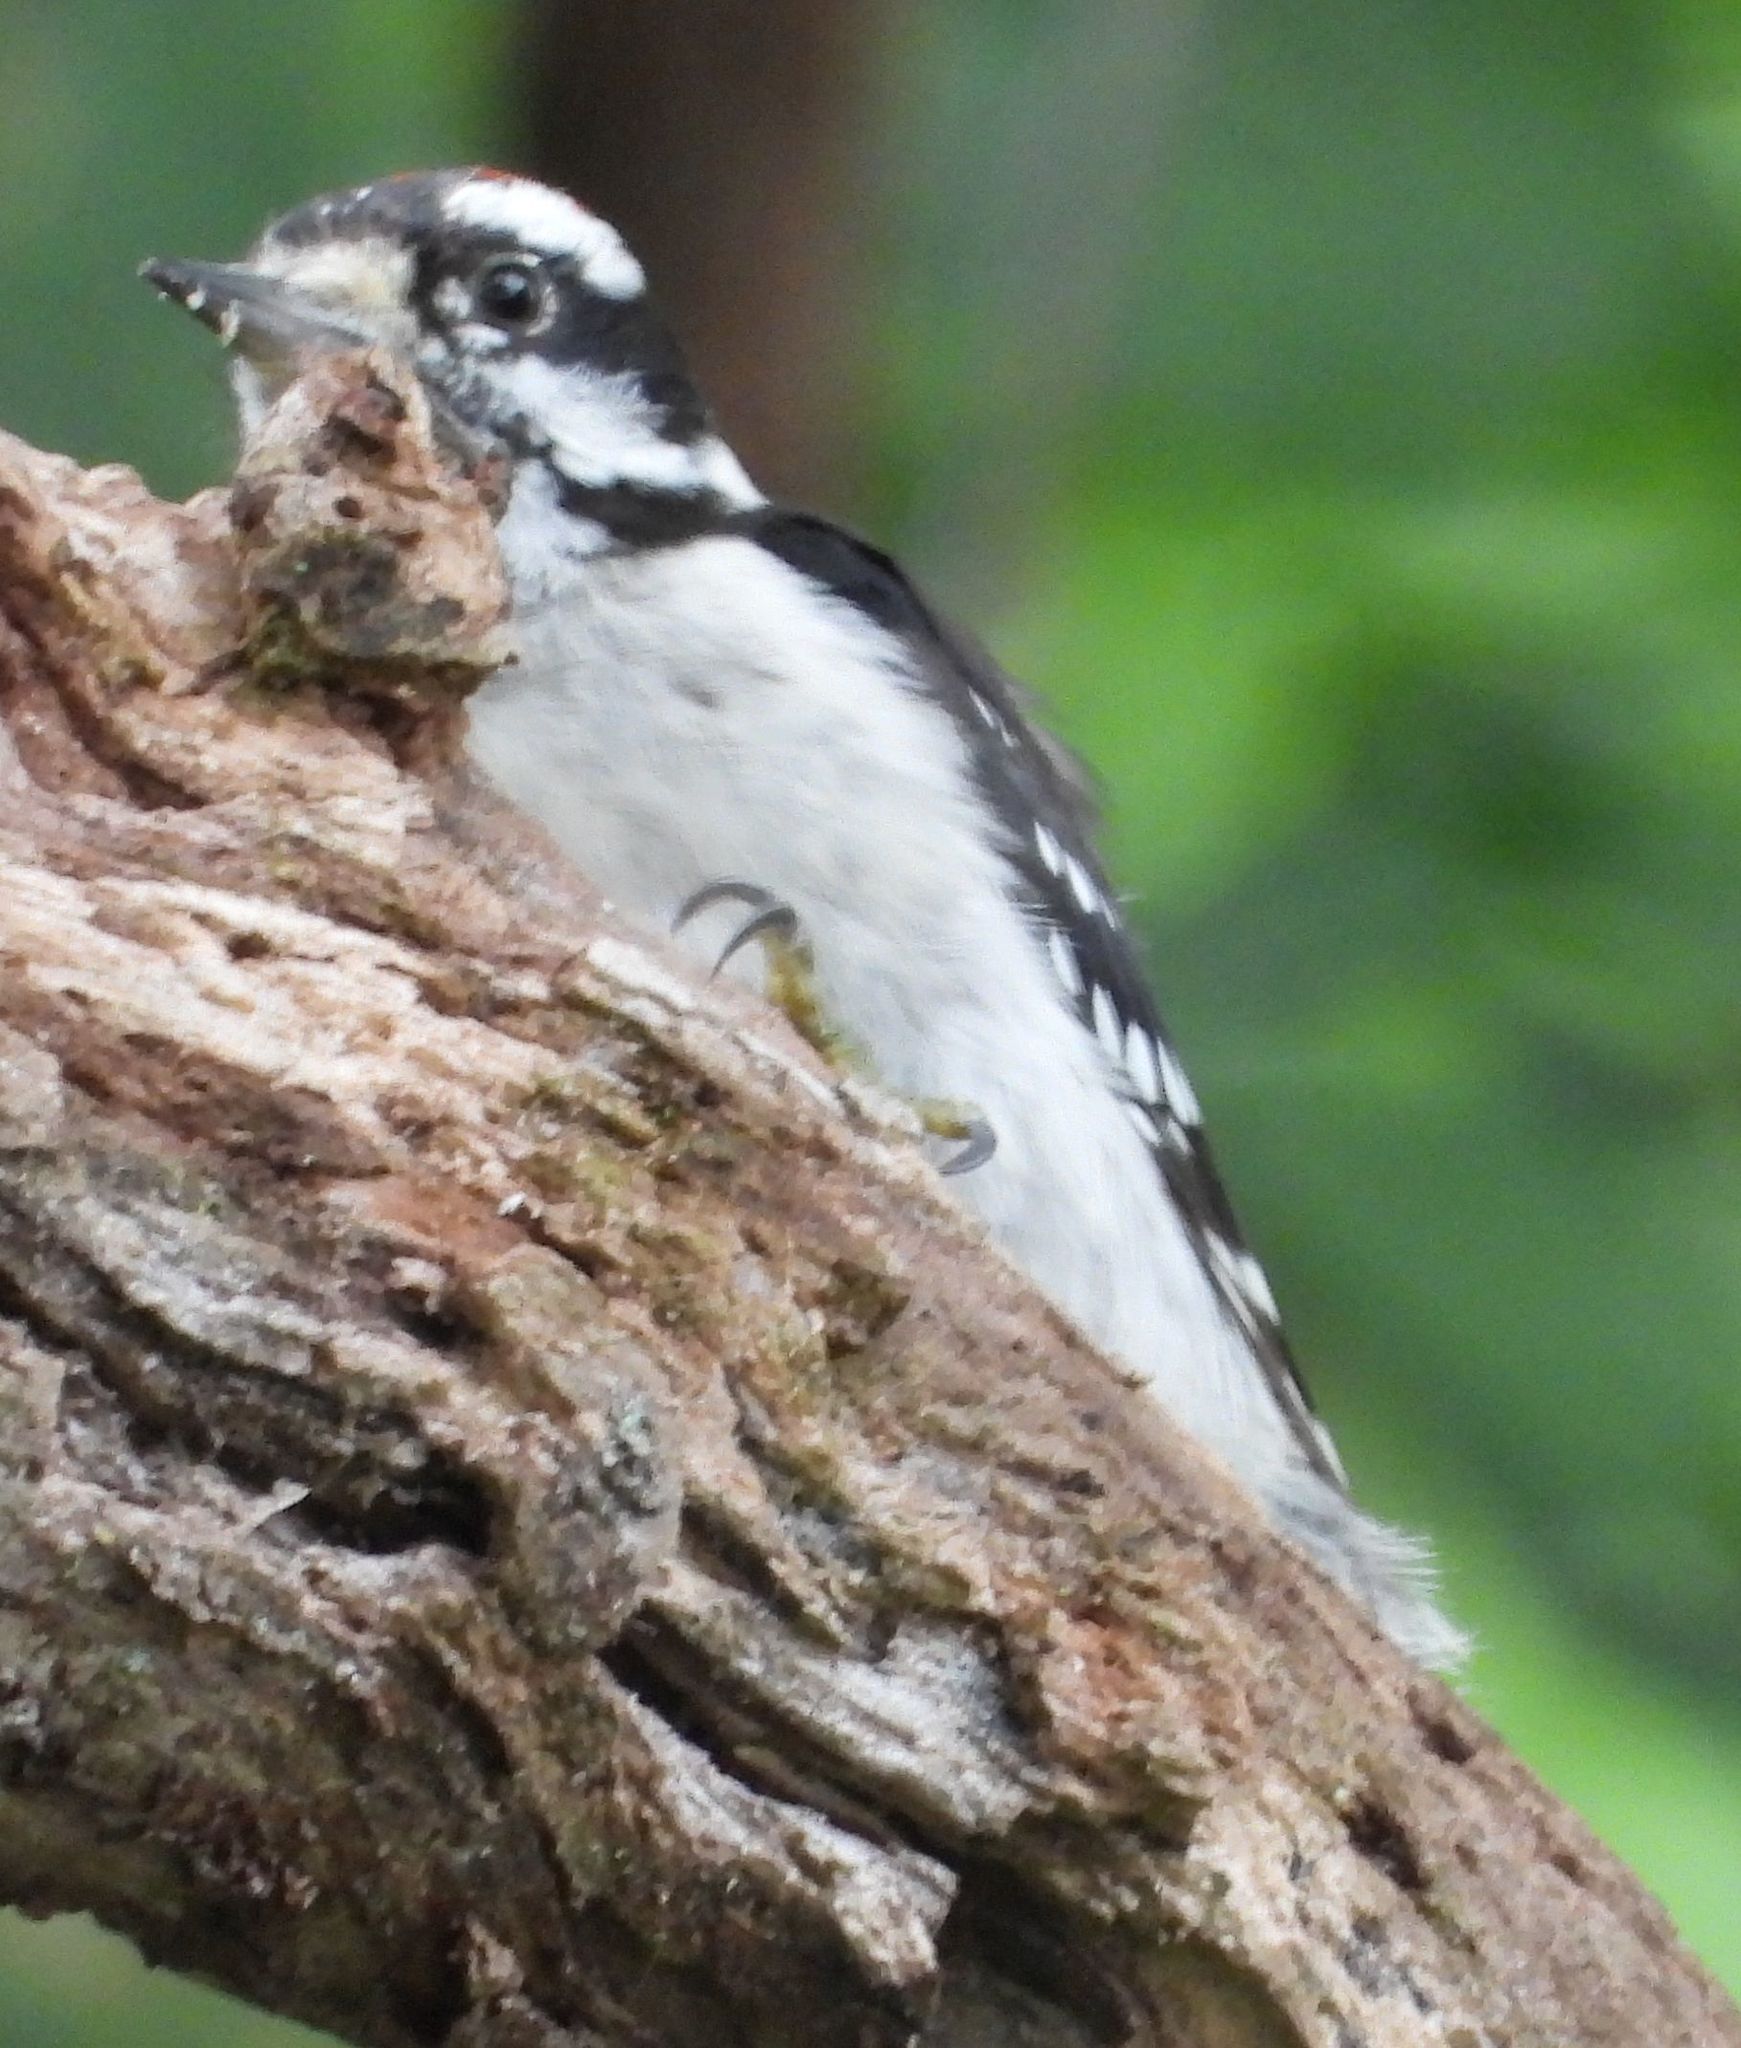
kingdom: Animalia
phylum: Chordata
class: Aves
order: Piciformes
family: Picidae
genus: Dryobates
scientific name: Dryobates pubescens
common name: Downy woodpecker
